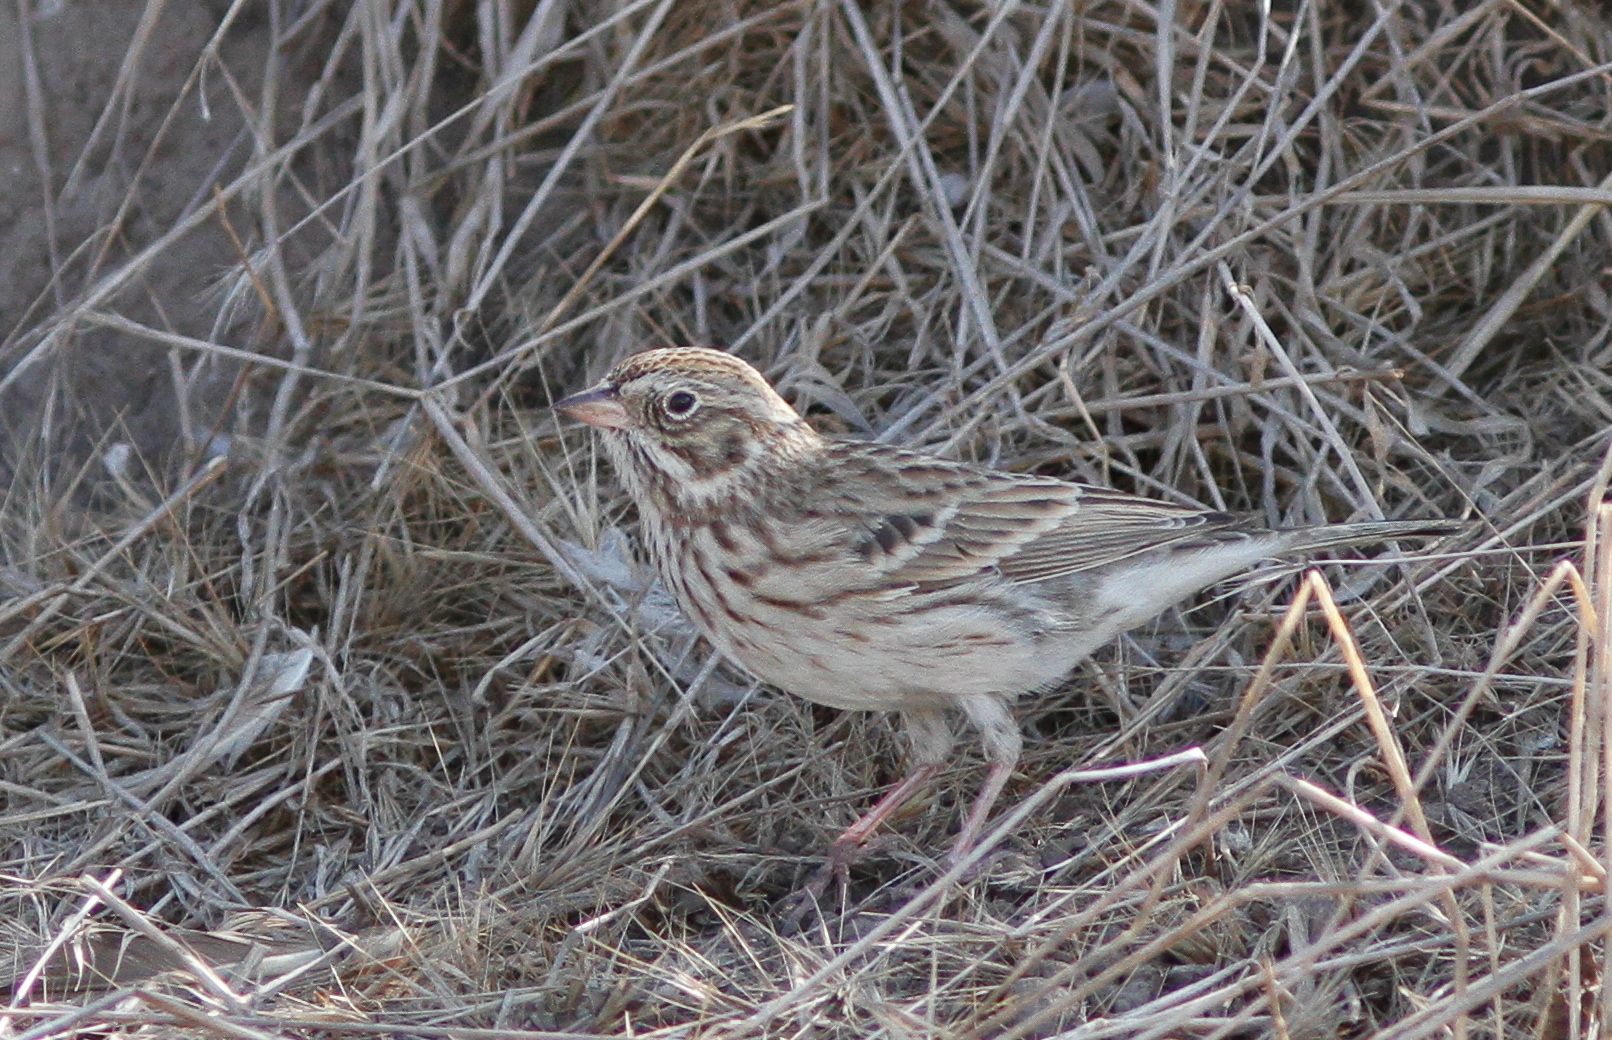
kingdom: Animalia
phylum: Chordata
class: Aves
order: Passeriformes
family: Passerellidae
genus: Pooecetes
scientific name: Pooecetes gramineus
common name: Vesper sparrow
